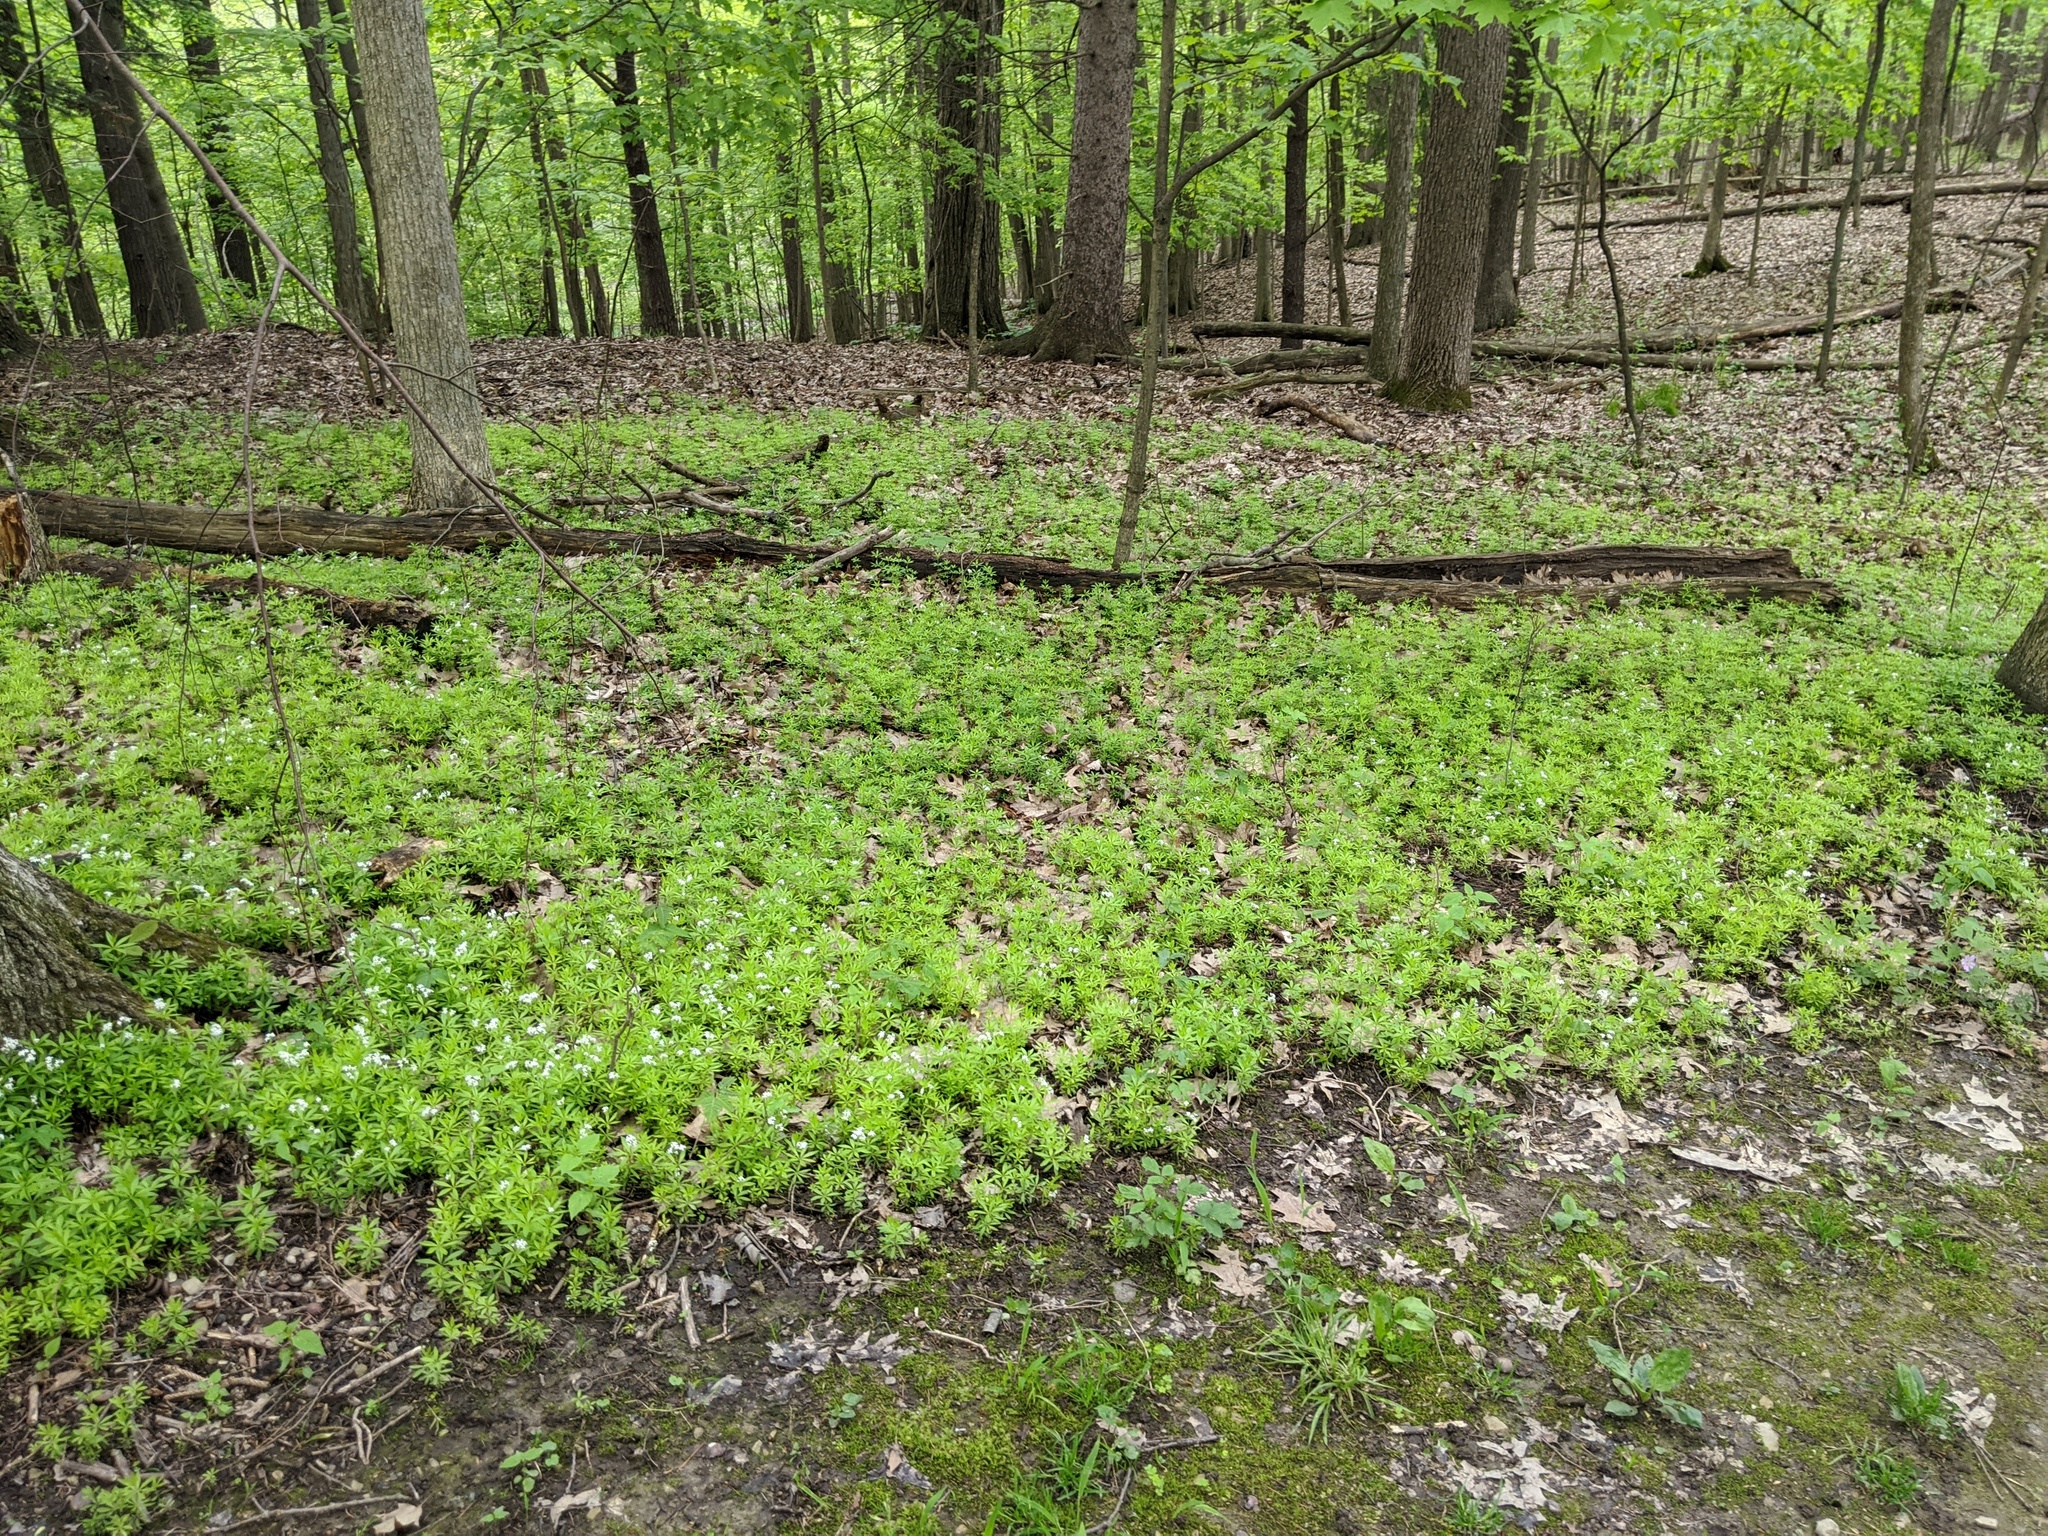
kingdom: Plantae
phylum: Tracheophyta
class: Magnoliopsida
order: Gentianales
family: Rubiaceae
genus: Galium
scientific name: Galium odoratum
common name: Sweet woodruff
